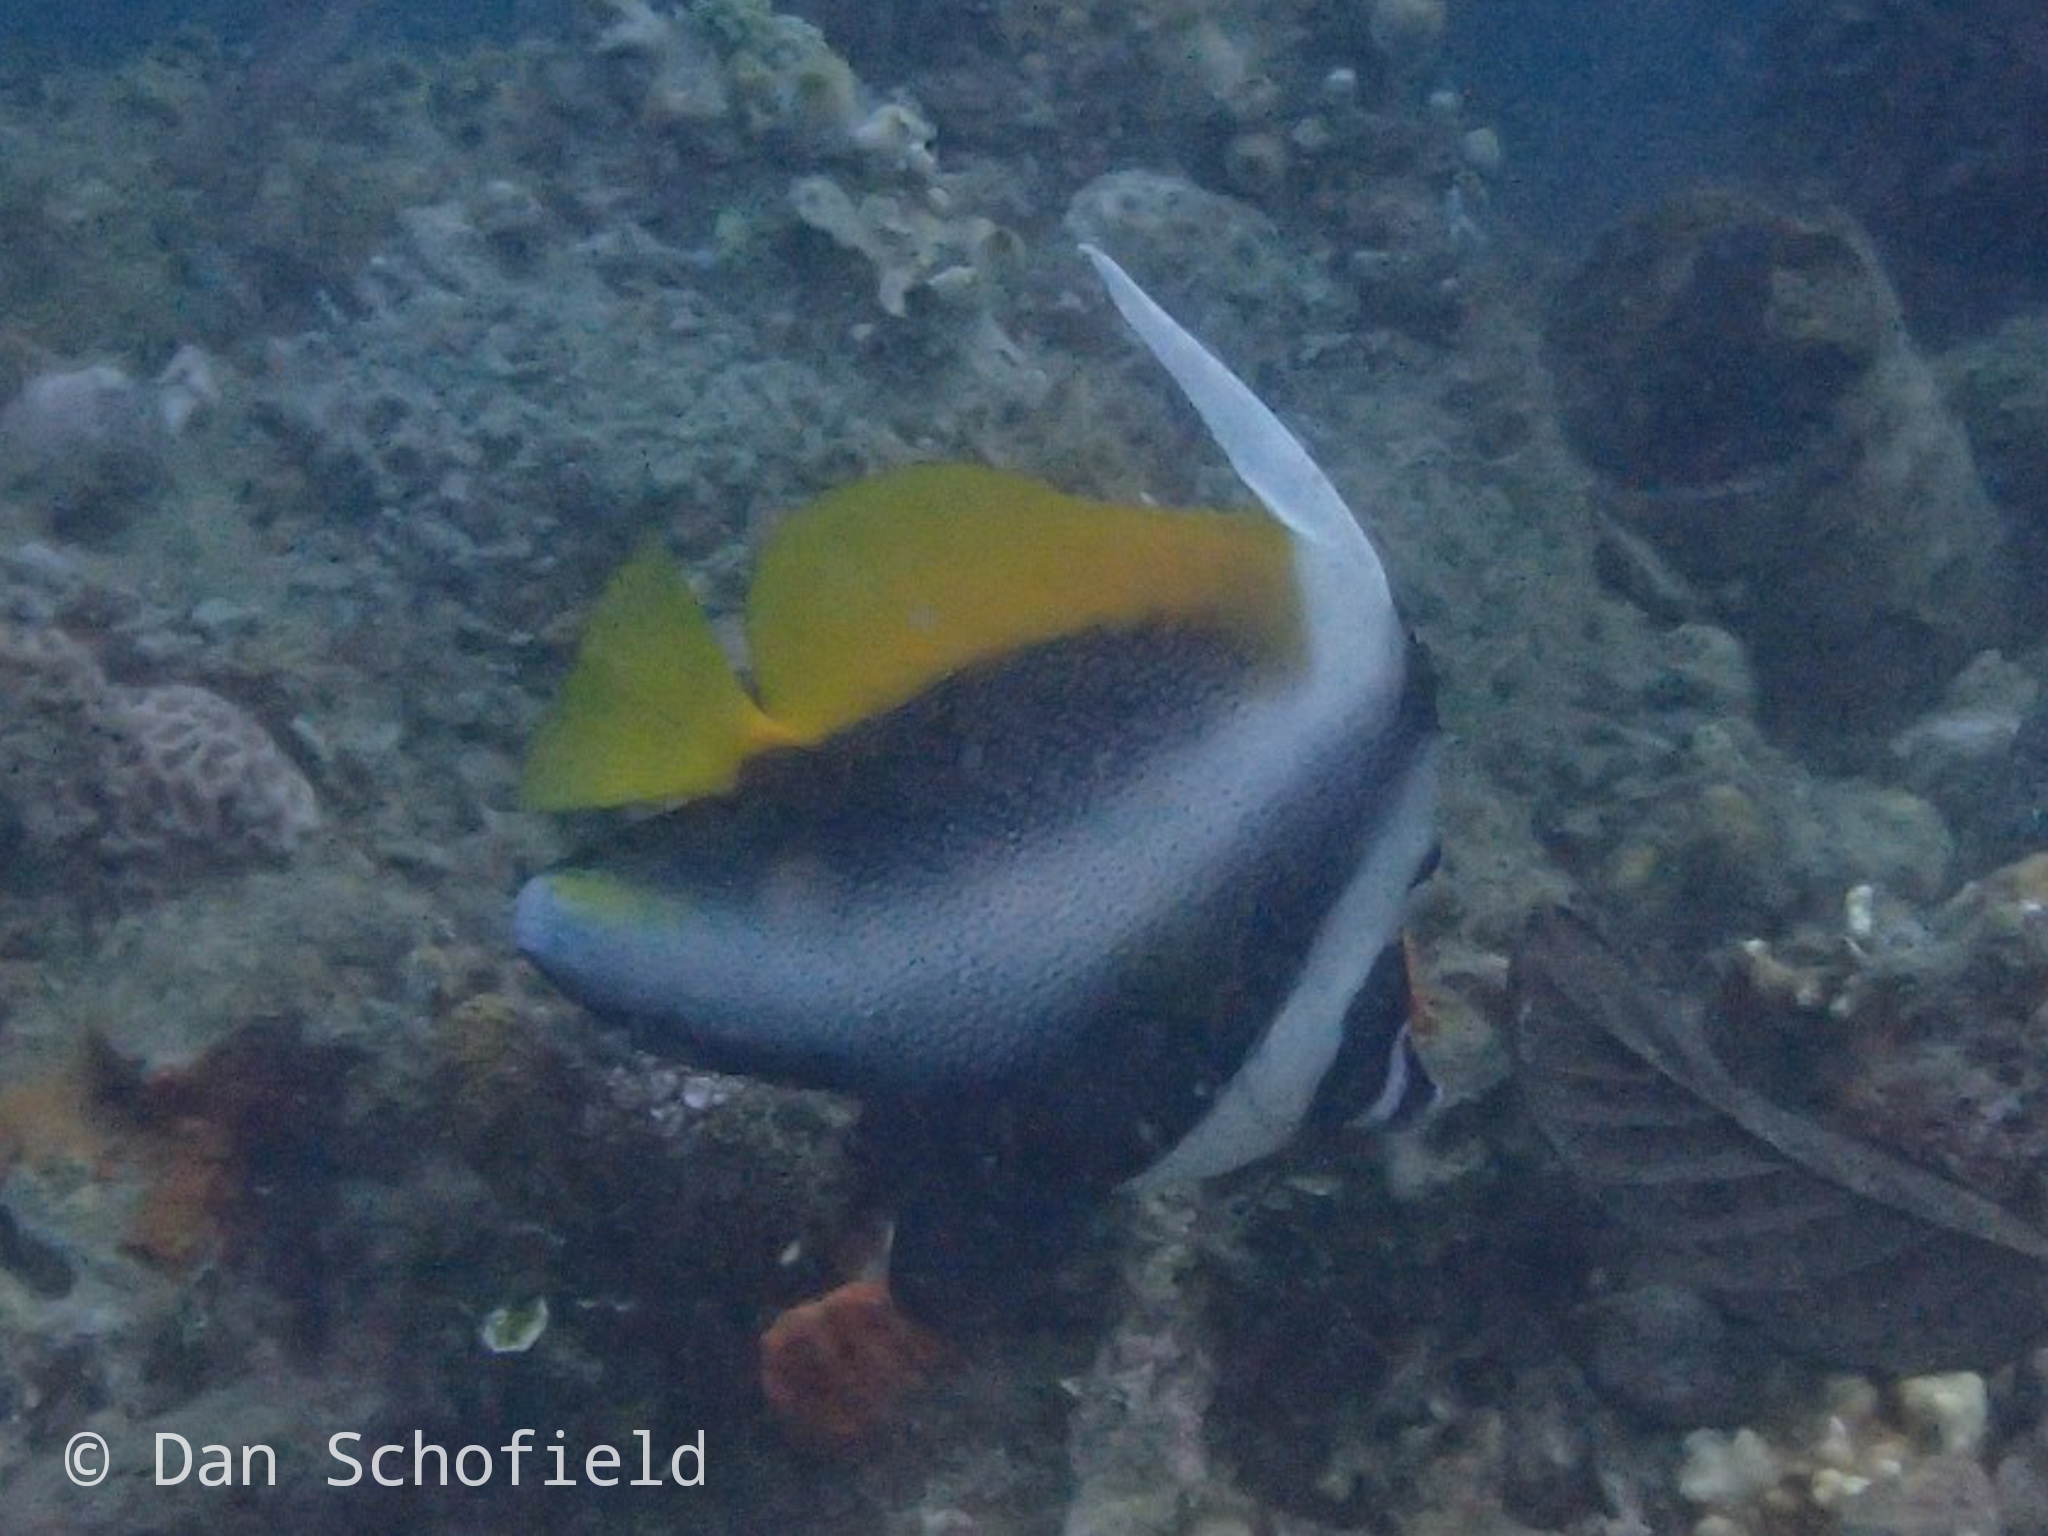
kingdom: Animalia
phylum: Chordata
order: Perciformes
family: Chaetodontidae
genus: Heniochus
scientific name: Heniochus singularius
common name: Singular bannerfish
